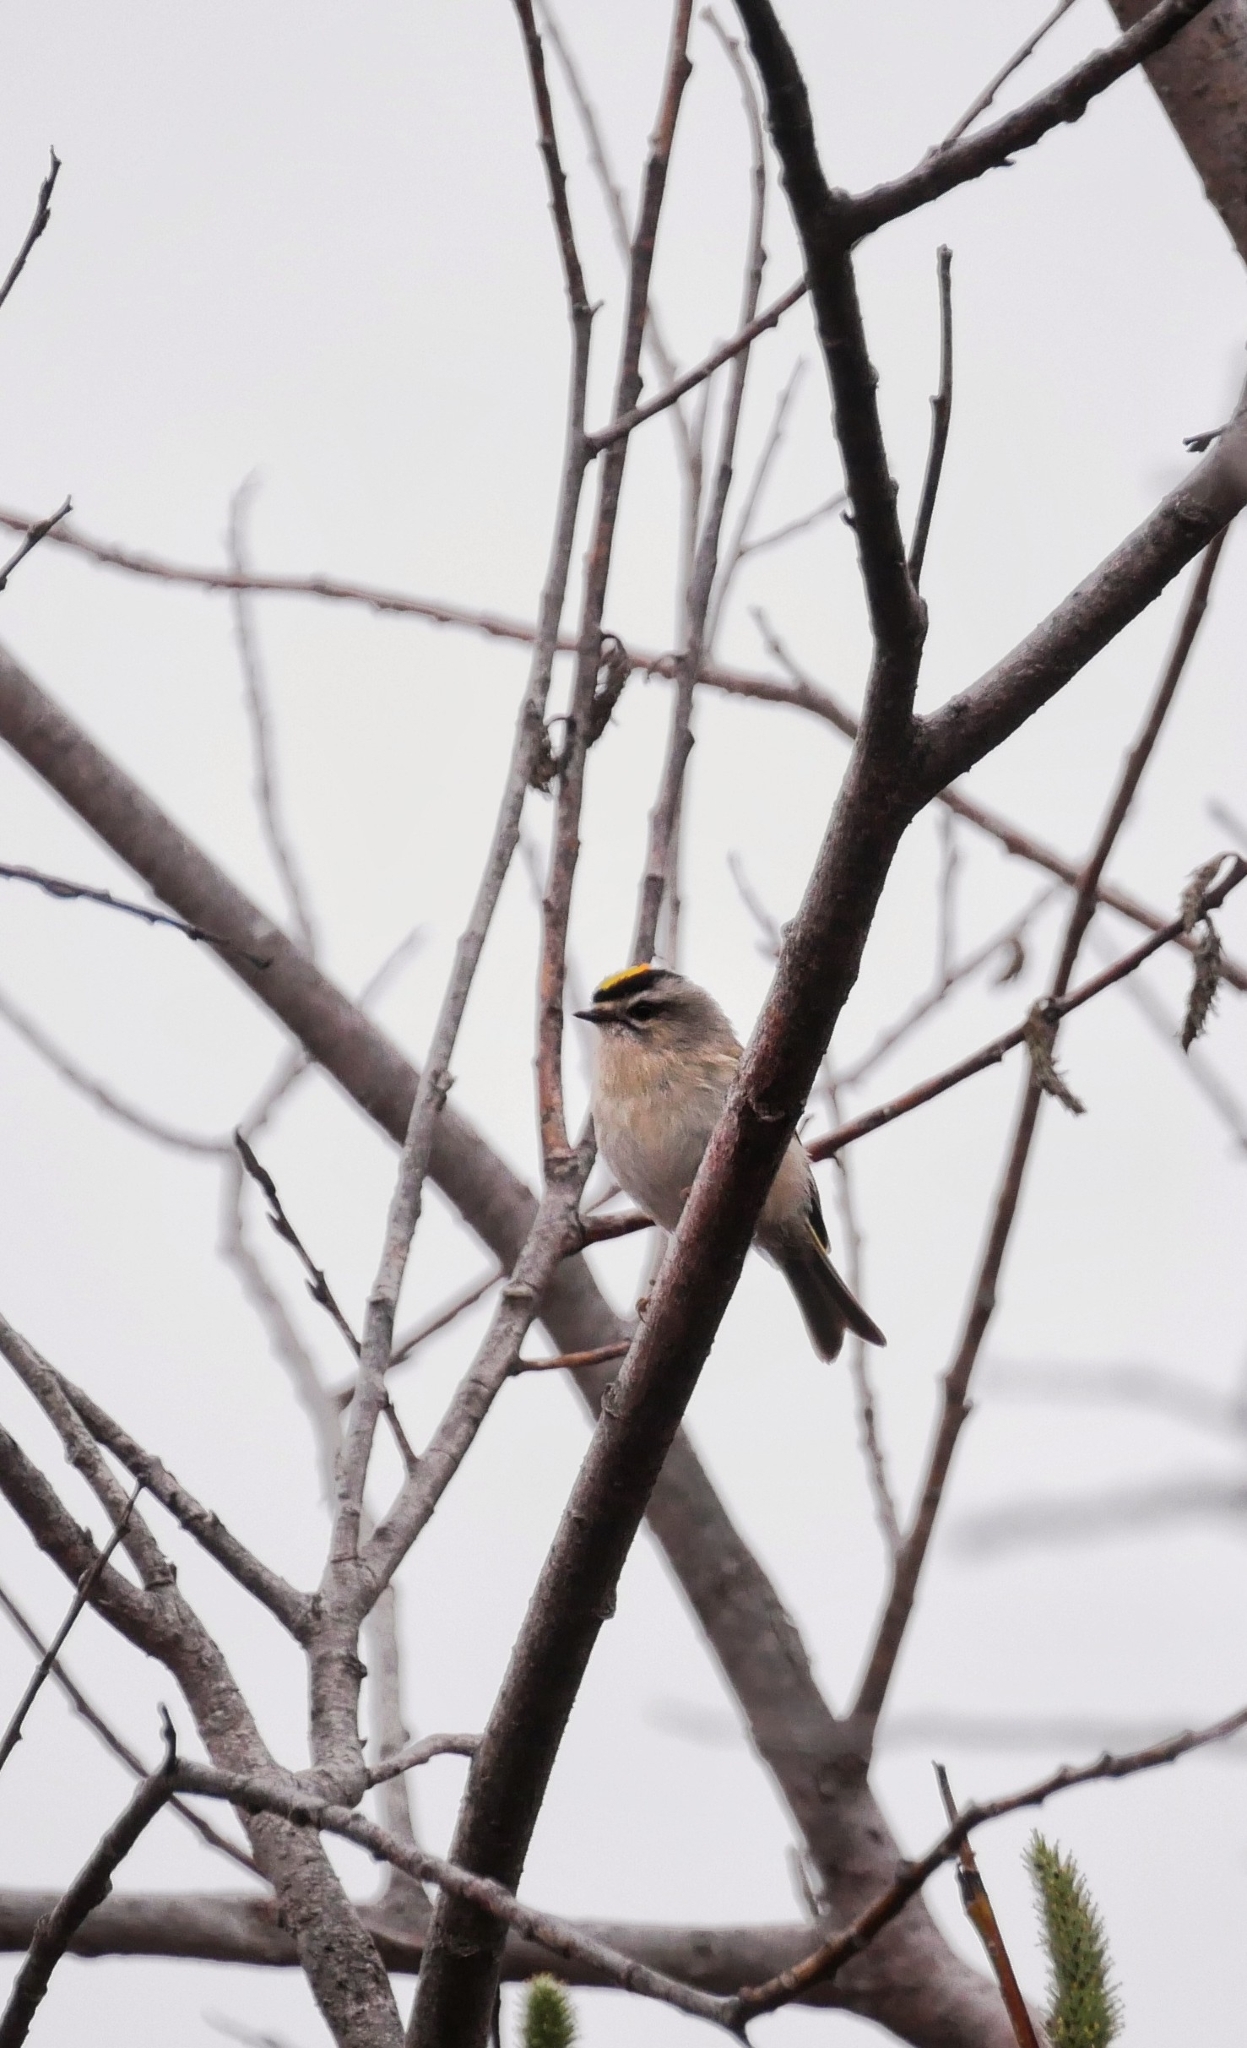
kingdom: Animalia
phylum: Chordata
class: Aves
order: Passeriformes
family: Regulidae
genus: Regulus
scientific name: Regulus satrapa
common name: Golden-crowned kinglet
